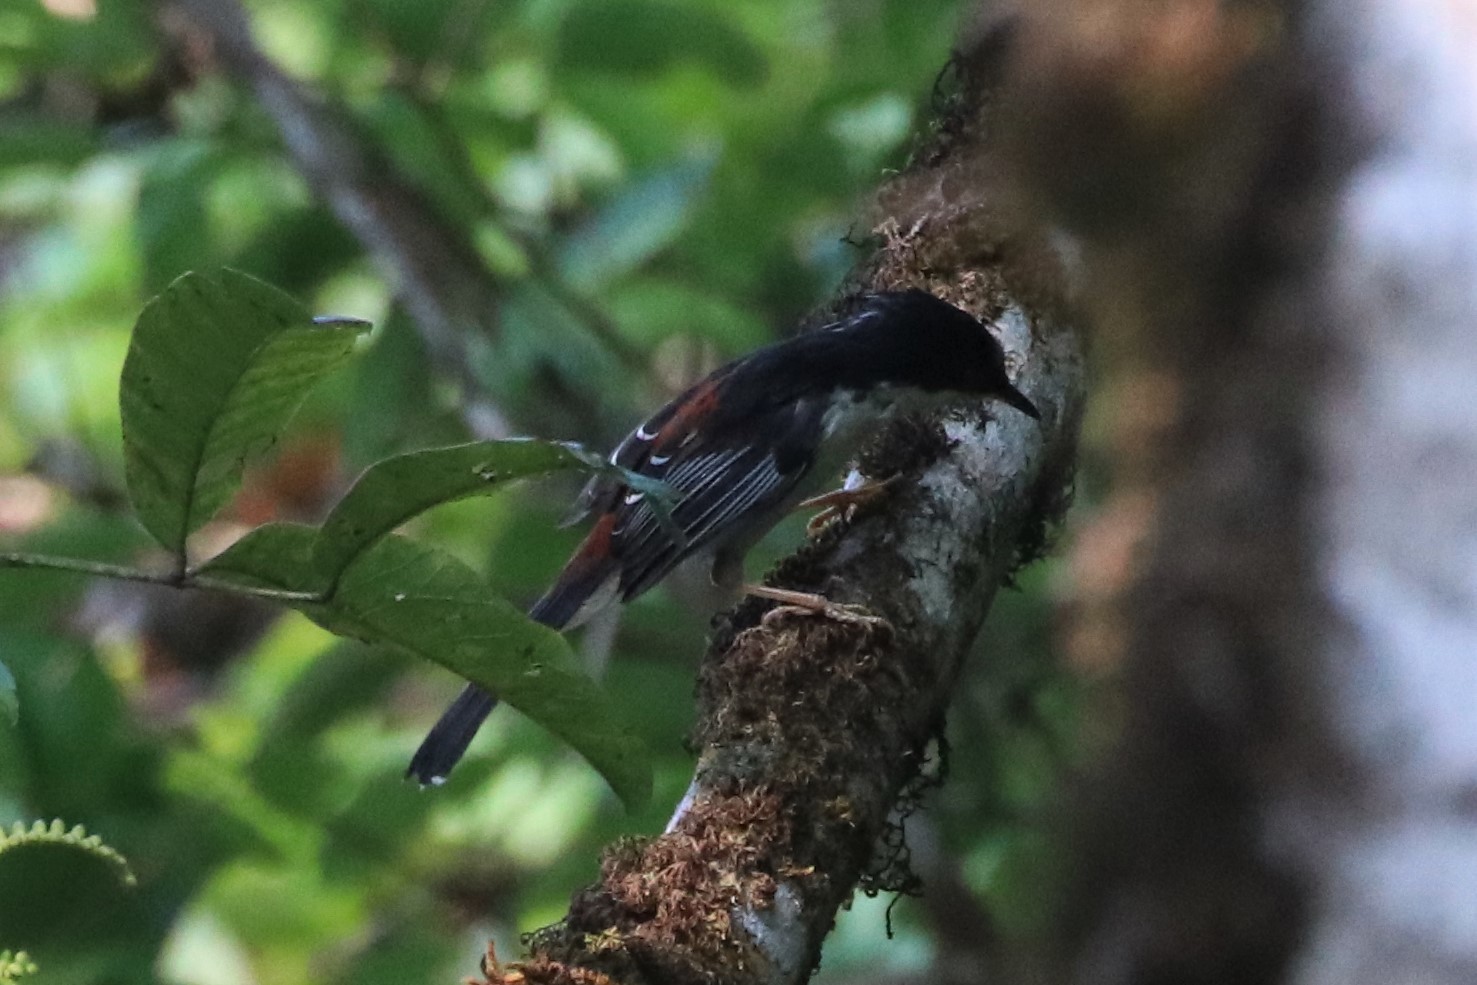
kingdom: Animalia
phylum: Chordata
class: Aves
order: Passeriformes
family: Leiothrichidae
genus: Heterophasia
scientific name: Heterophasia annectans
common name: Rufous-backed sibia
